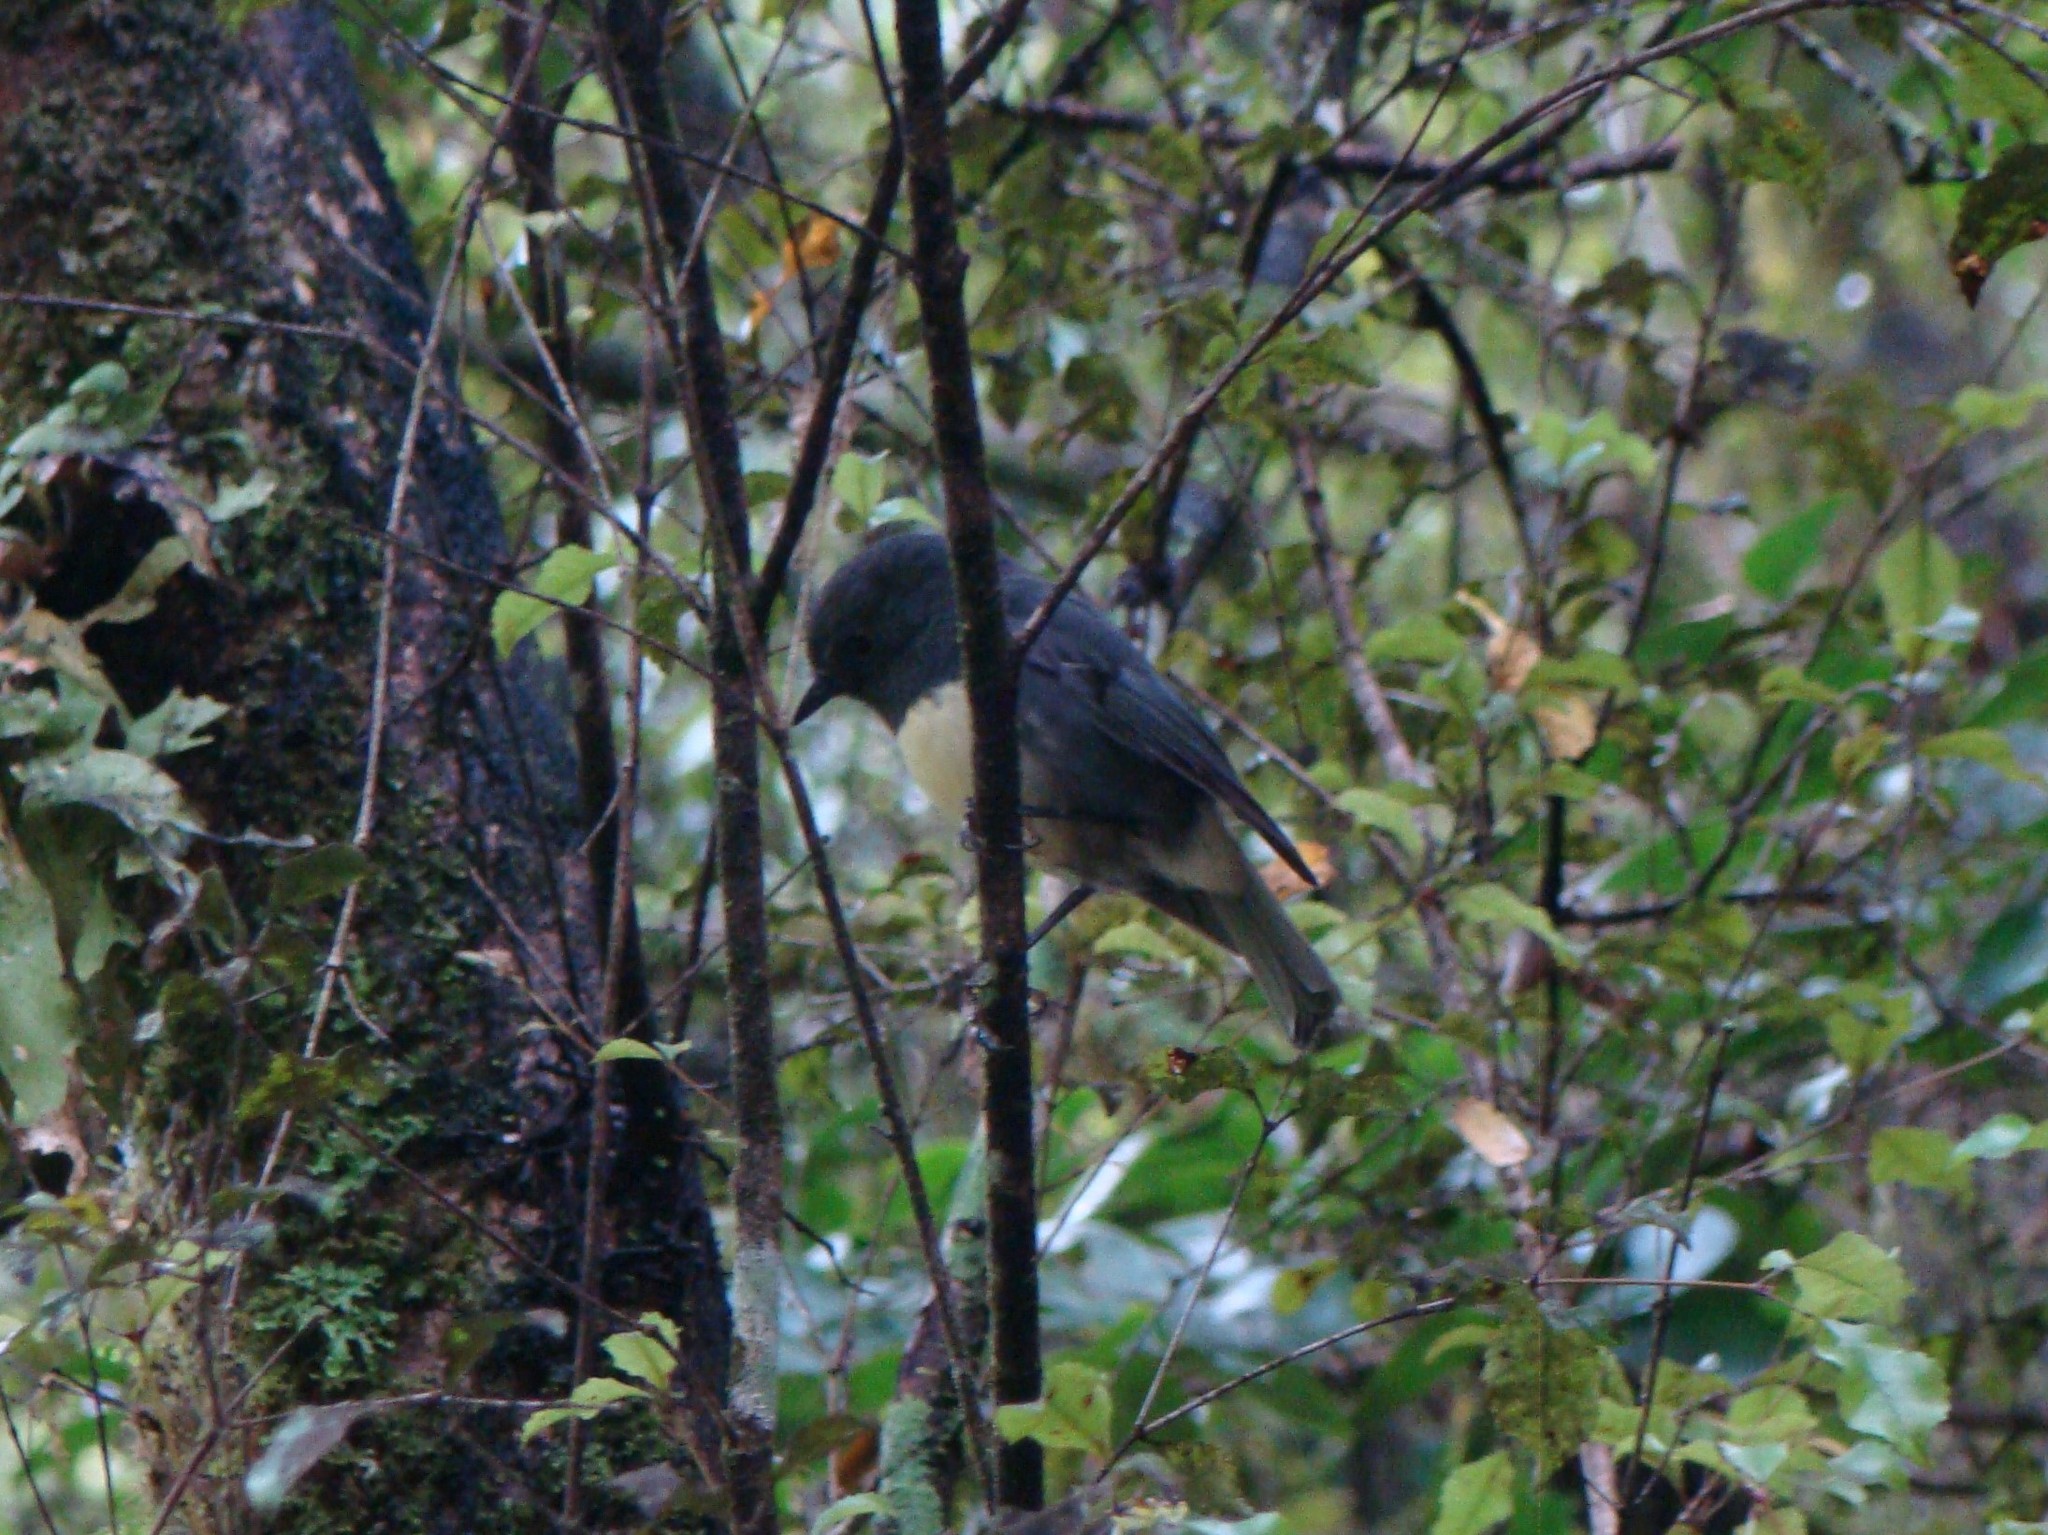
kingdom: Animalia
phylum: Chordata
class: Aves
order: Passeriformes
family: Petroicidae
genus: Petroica
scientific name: Petroica macrocephala
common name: Tomtit
